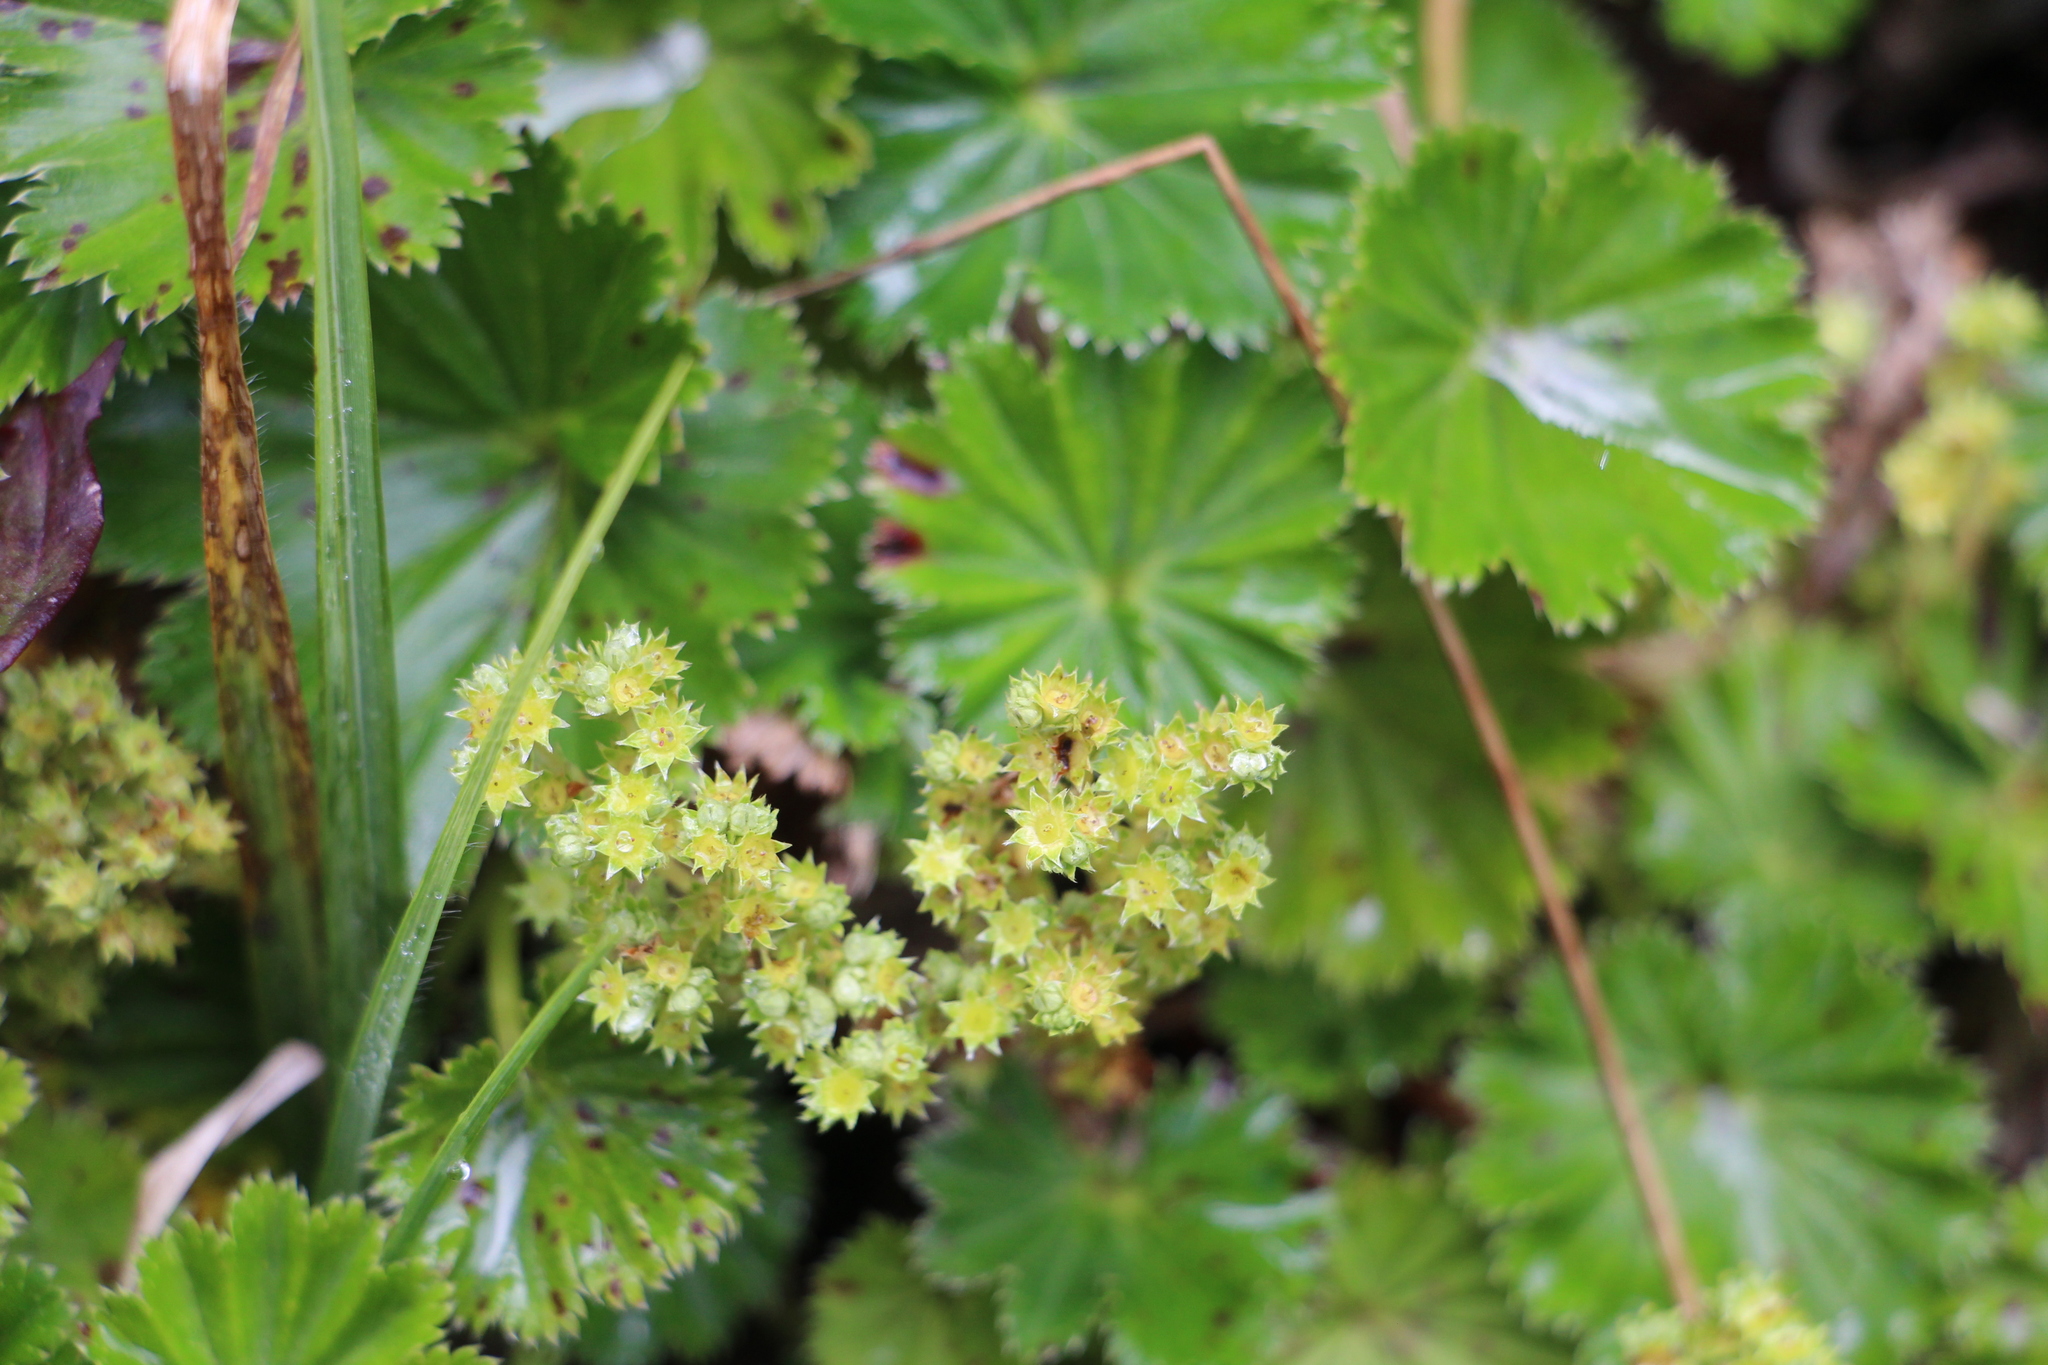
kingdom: Plantae
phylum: Tracheophyta
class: Magnoliopsida
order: Rosales
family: Rosaceae
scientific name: Rosaceae
